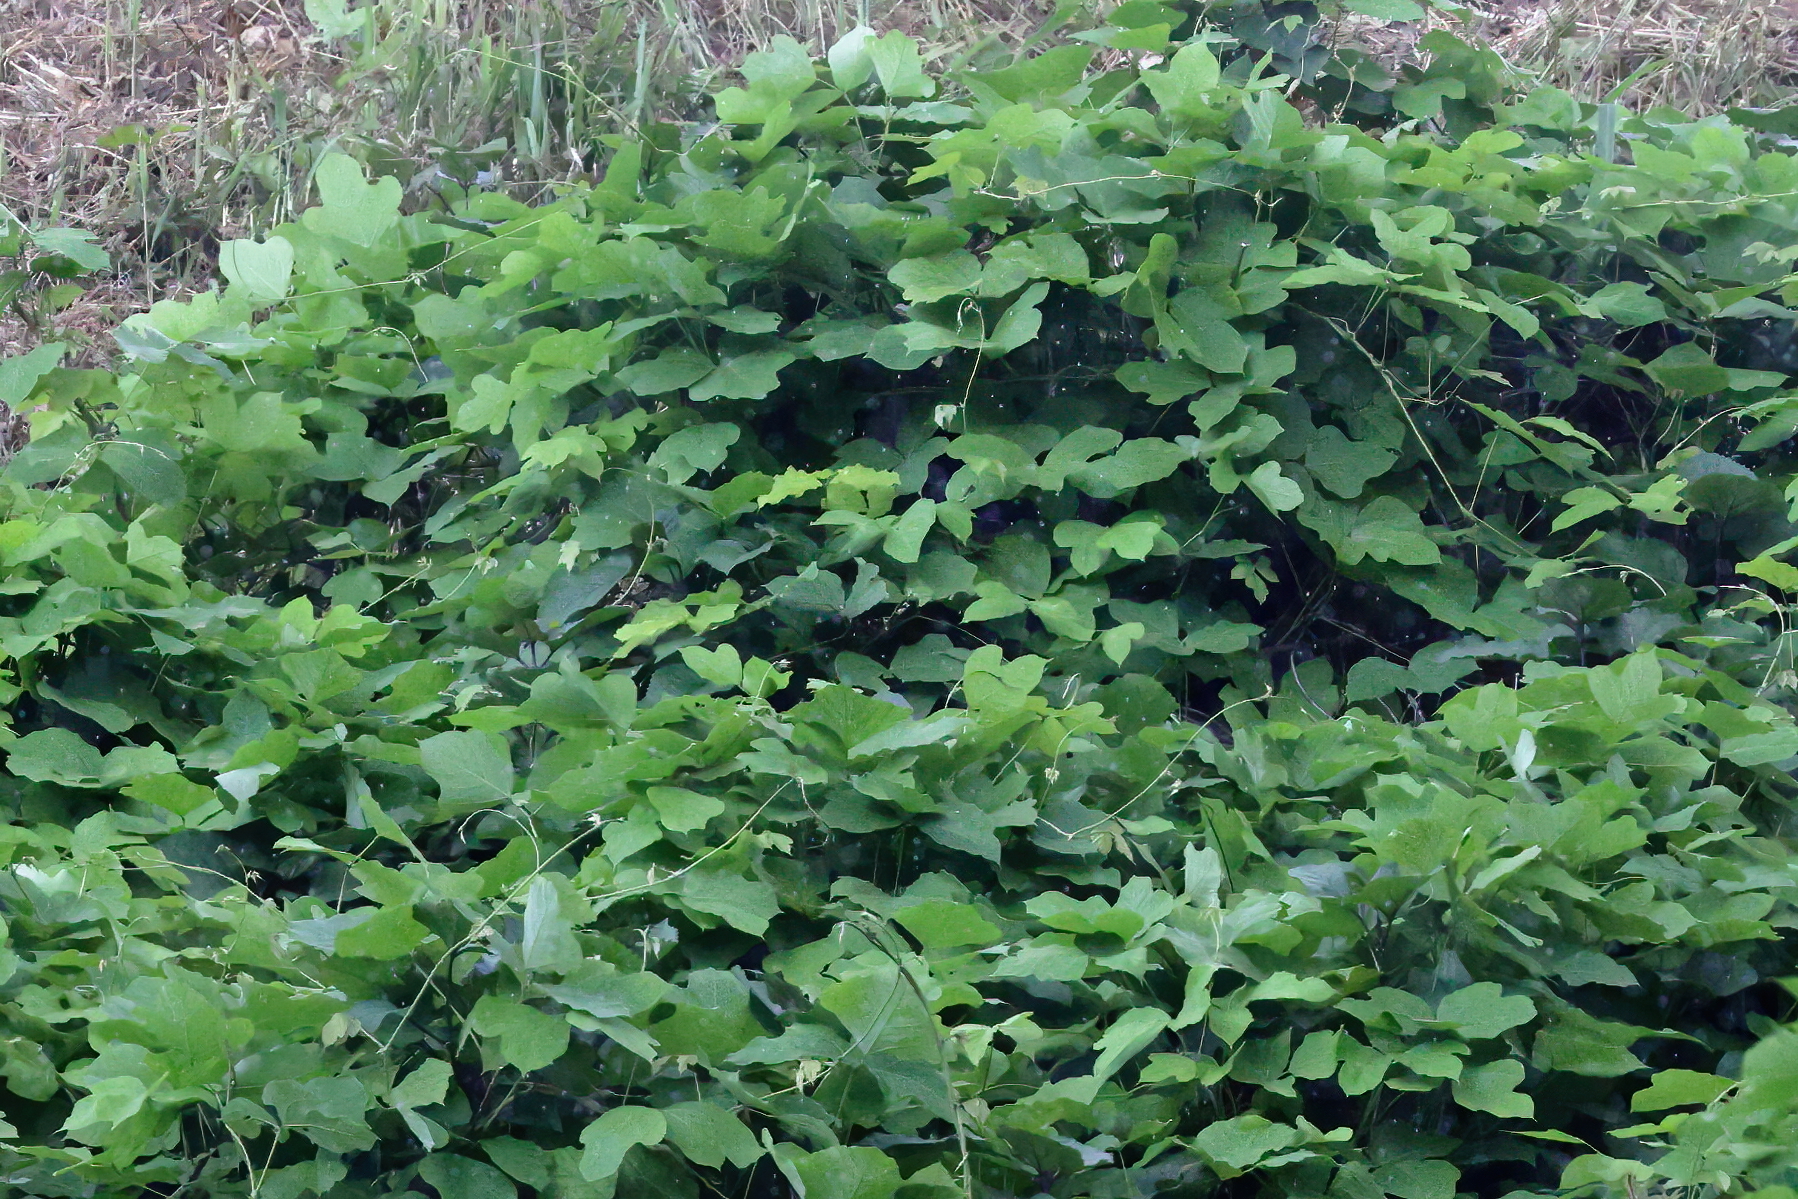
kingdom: Plantae
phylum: Tracheophyta
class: Magnoliopsida
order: Fabales
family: Fabaceae
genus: Pueraria
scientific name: Pueraria montana
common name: Kudzu
